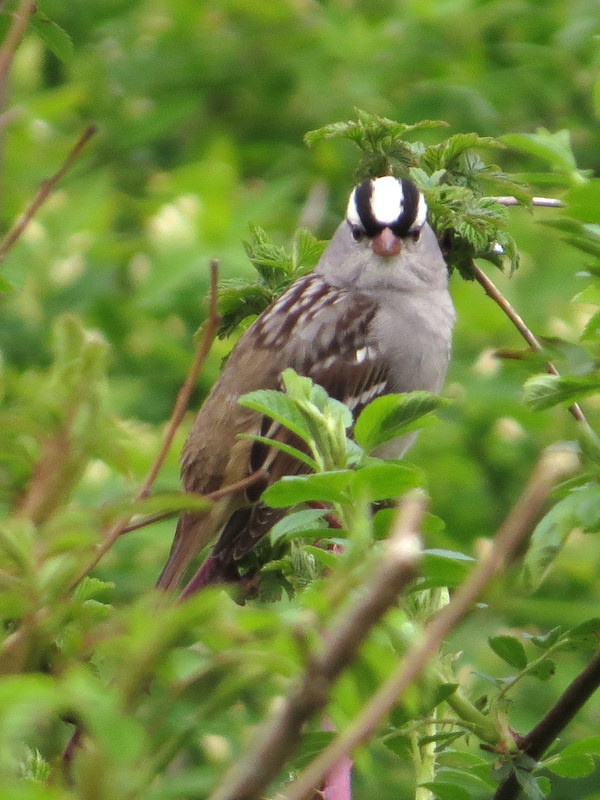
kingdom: Animalia
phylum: Chordata
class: Aves
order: Passeriformes
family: Passerellidae
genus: Zonotrichia
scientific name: Zonotrichia leucophrys
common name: White-crowned sparrow
